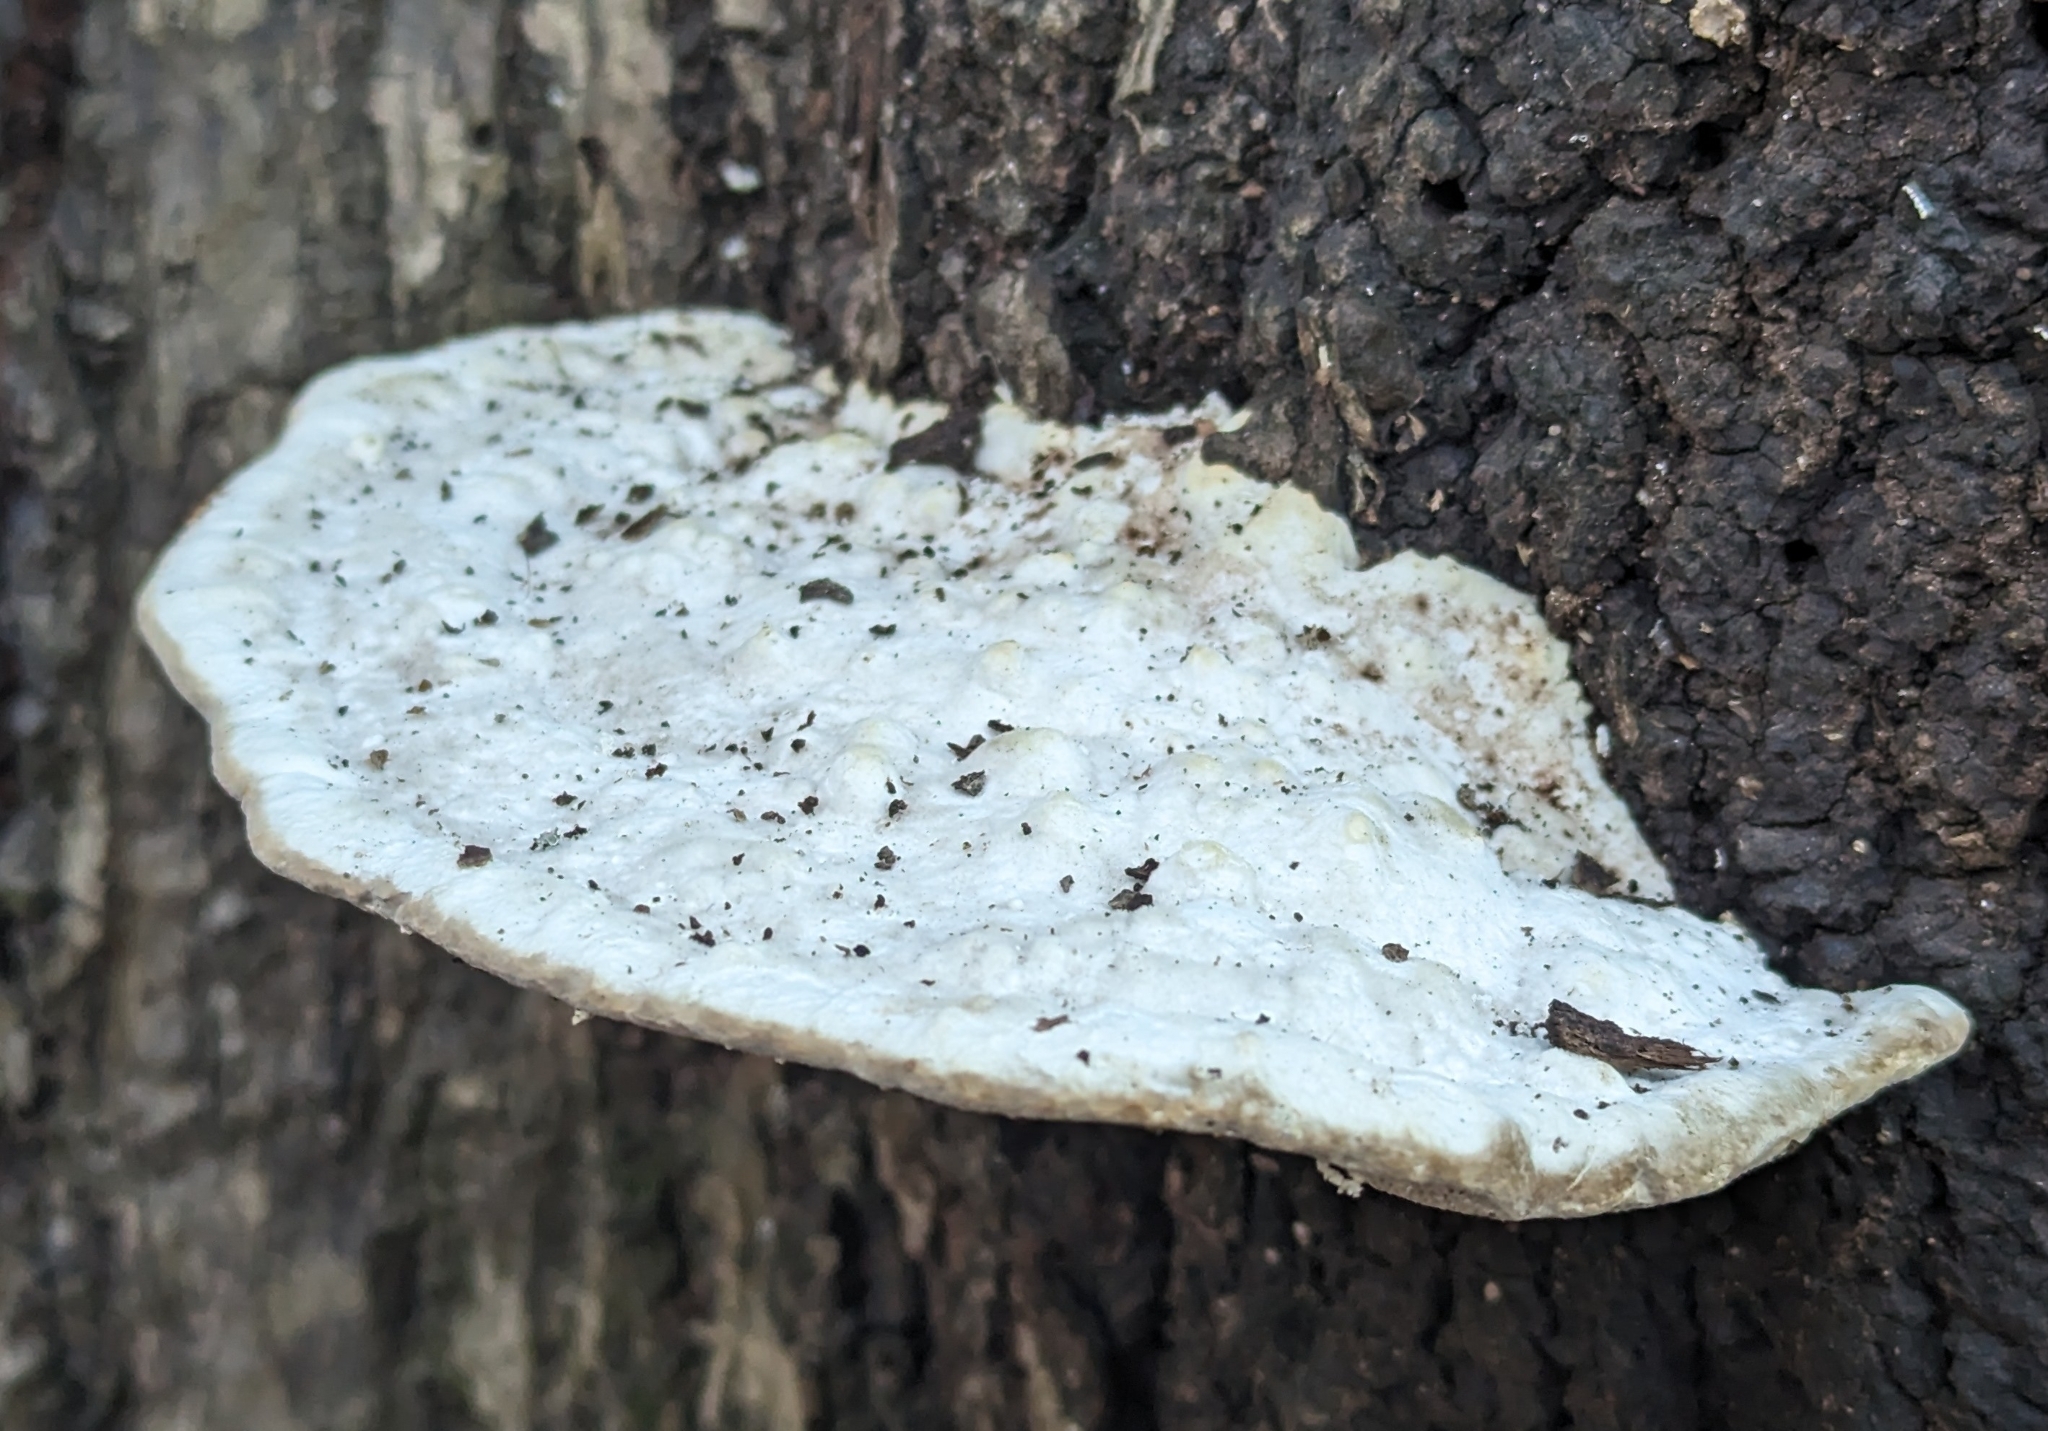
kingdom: Fungi
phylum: Basidiomycota
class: Agaricomycetes
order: Polyporales
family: Polyporaceae
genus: Trametes
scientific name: Trametes gibbosa
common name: Lumpy bracket
